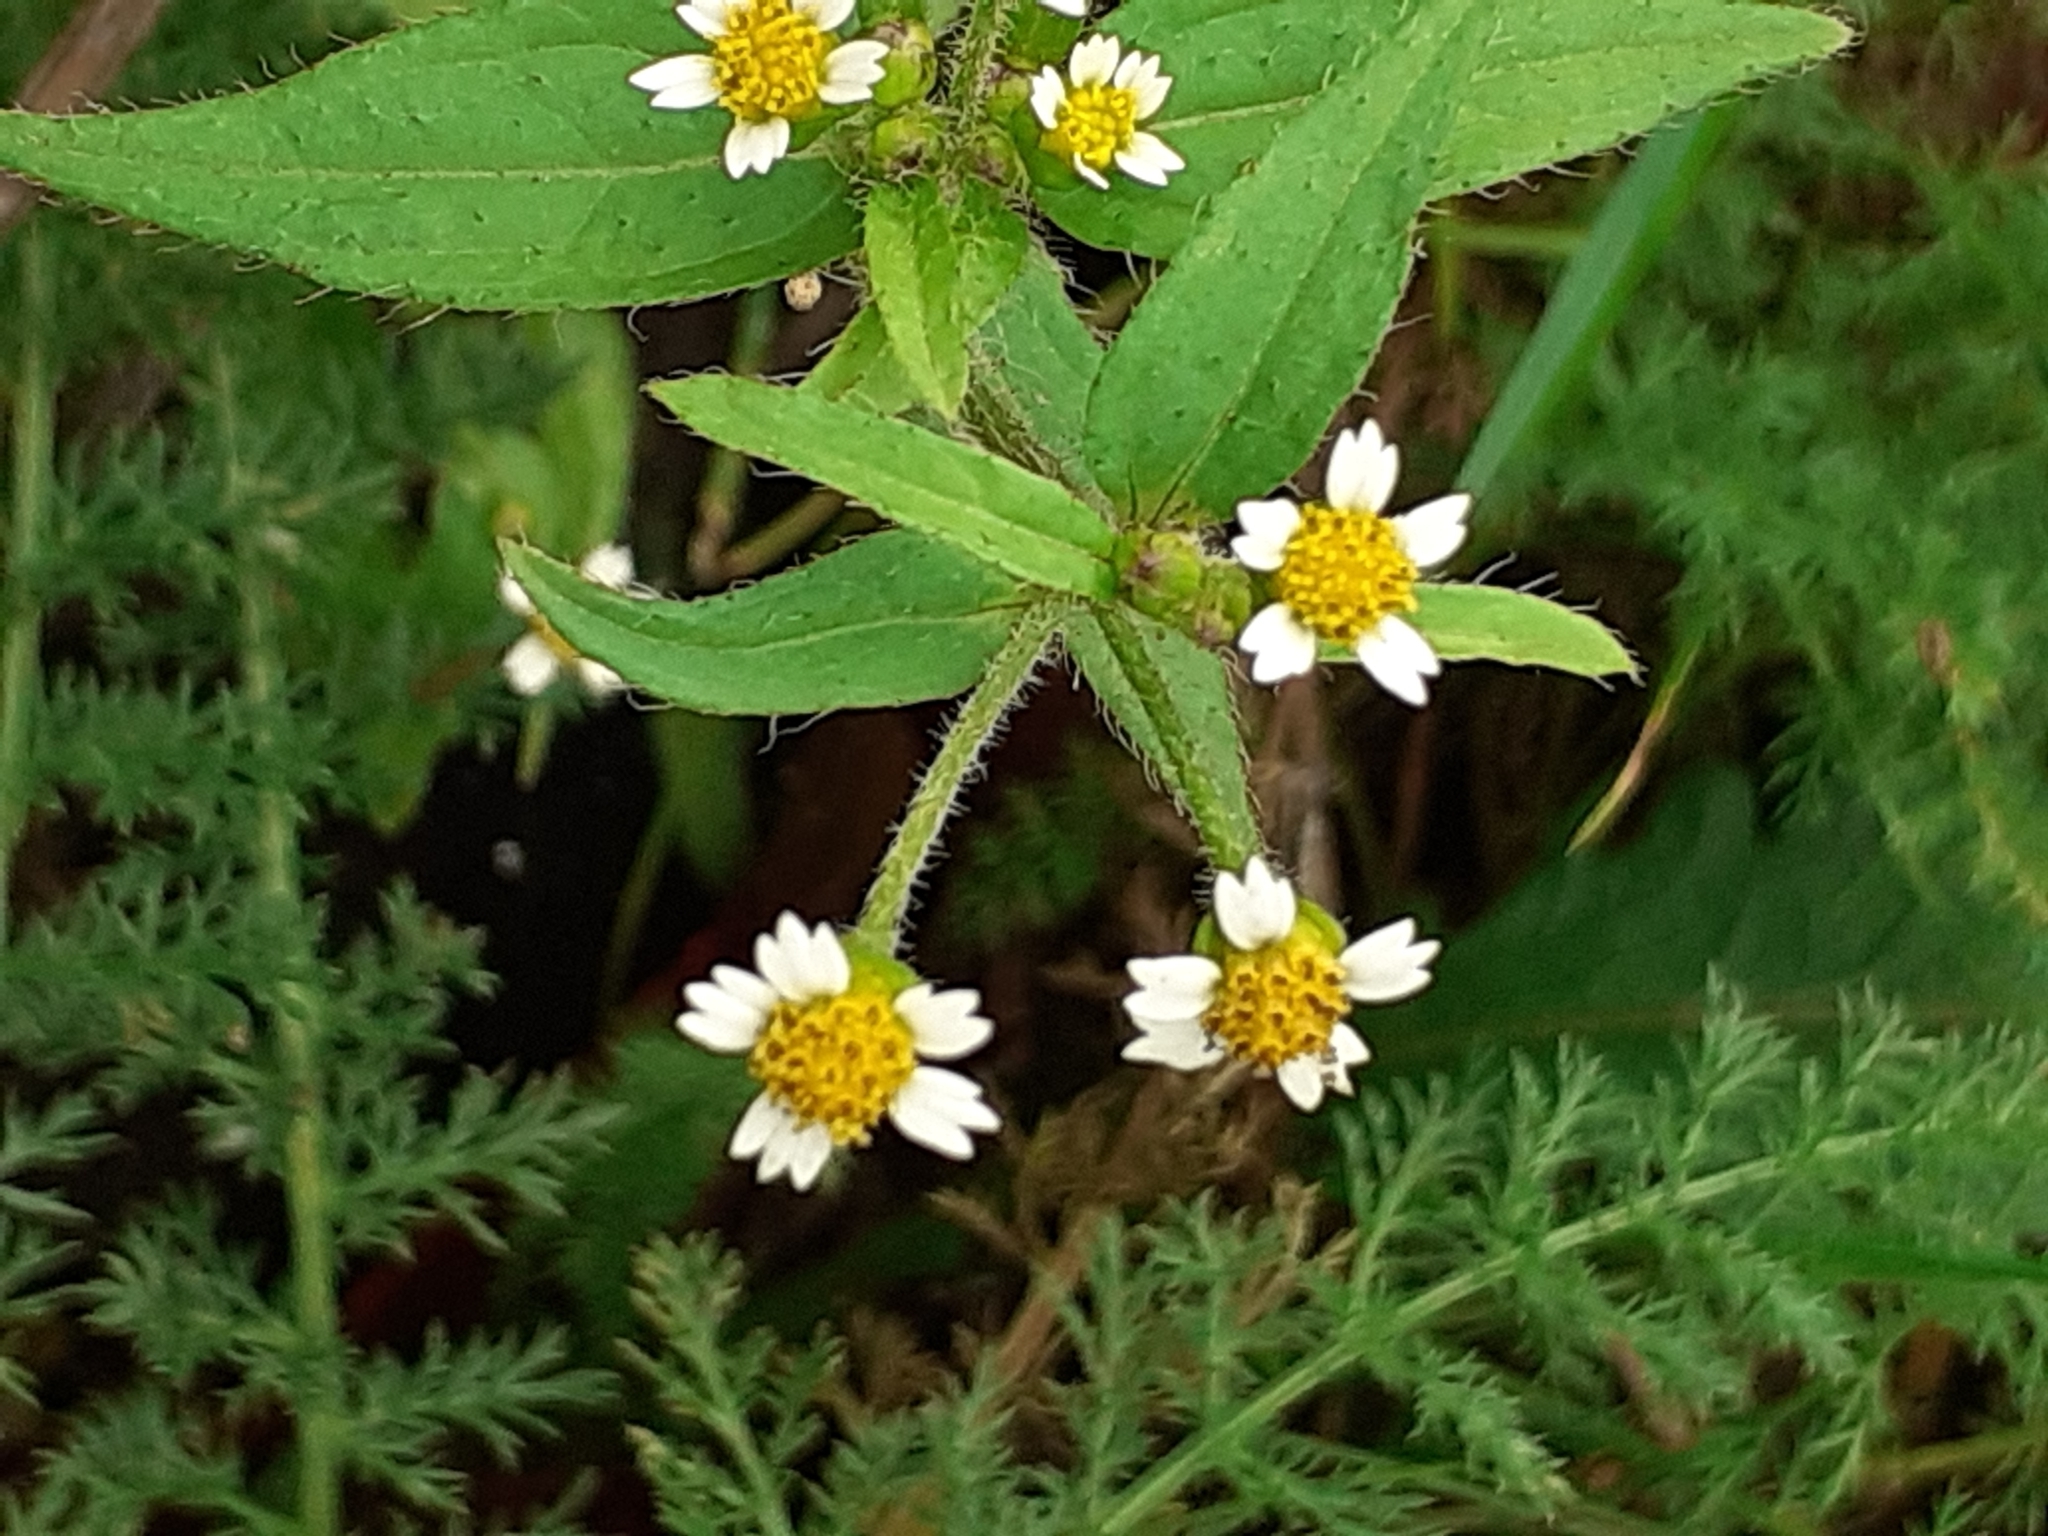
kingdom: Plantae
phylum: Tracheophyta
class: Magnoliopsida
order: Asterales
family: Asteraceae
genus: Galinsoga
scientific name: Galinsoga quadriradiata
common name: Shaggy soldier
